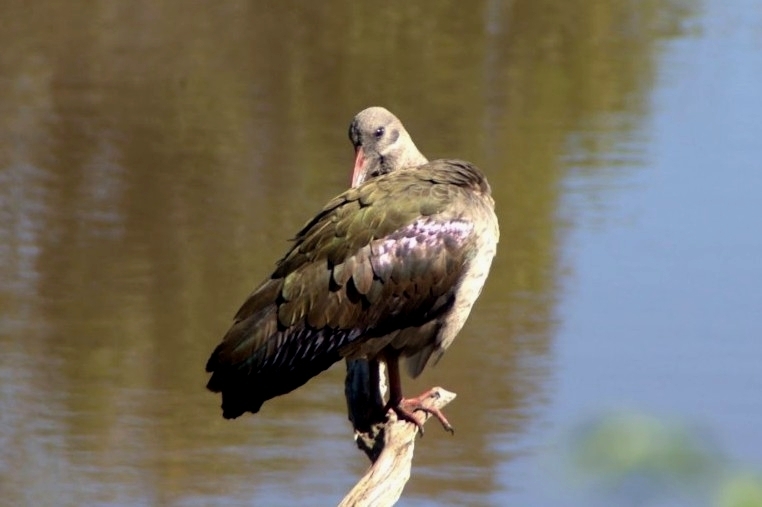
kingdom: Animalia
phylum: Chordata
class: Aves
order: Pelecaniformes
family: Threskiornithidae
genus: Bostrychia
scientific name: Bostrychia hagedash
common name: Hadada ibis
